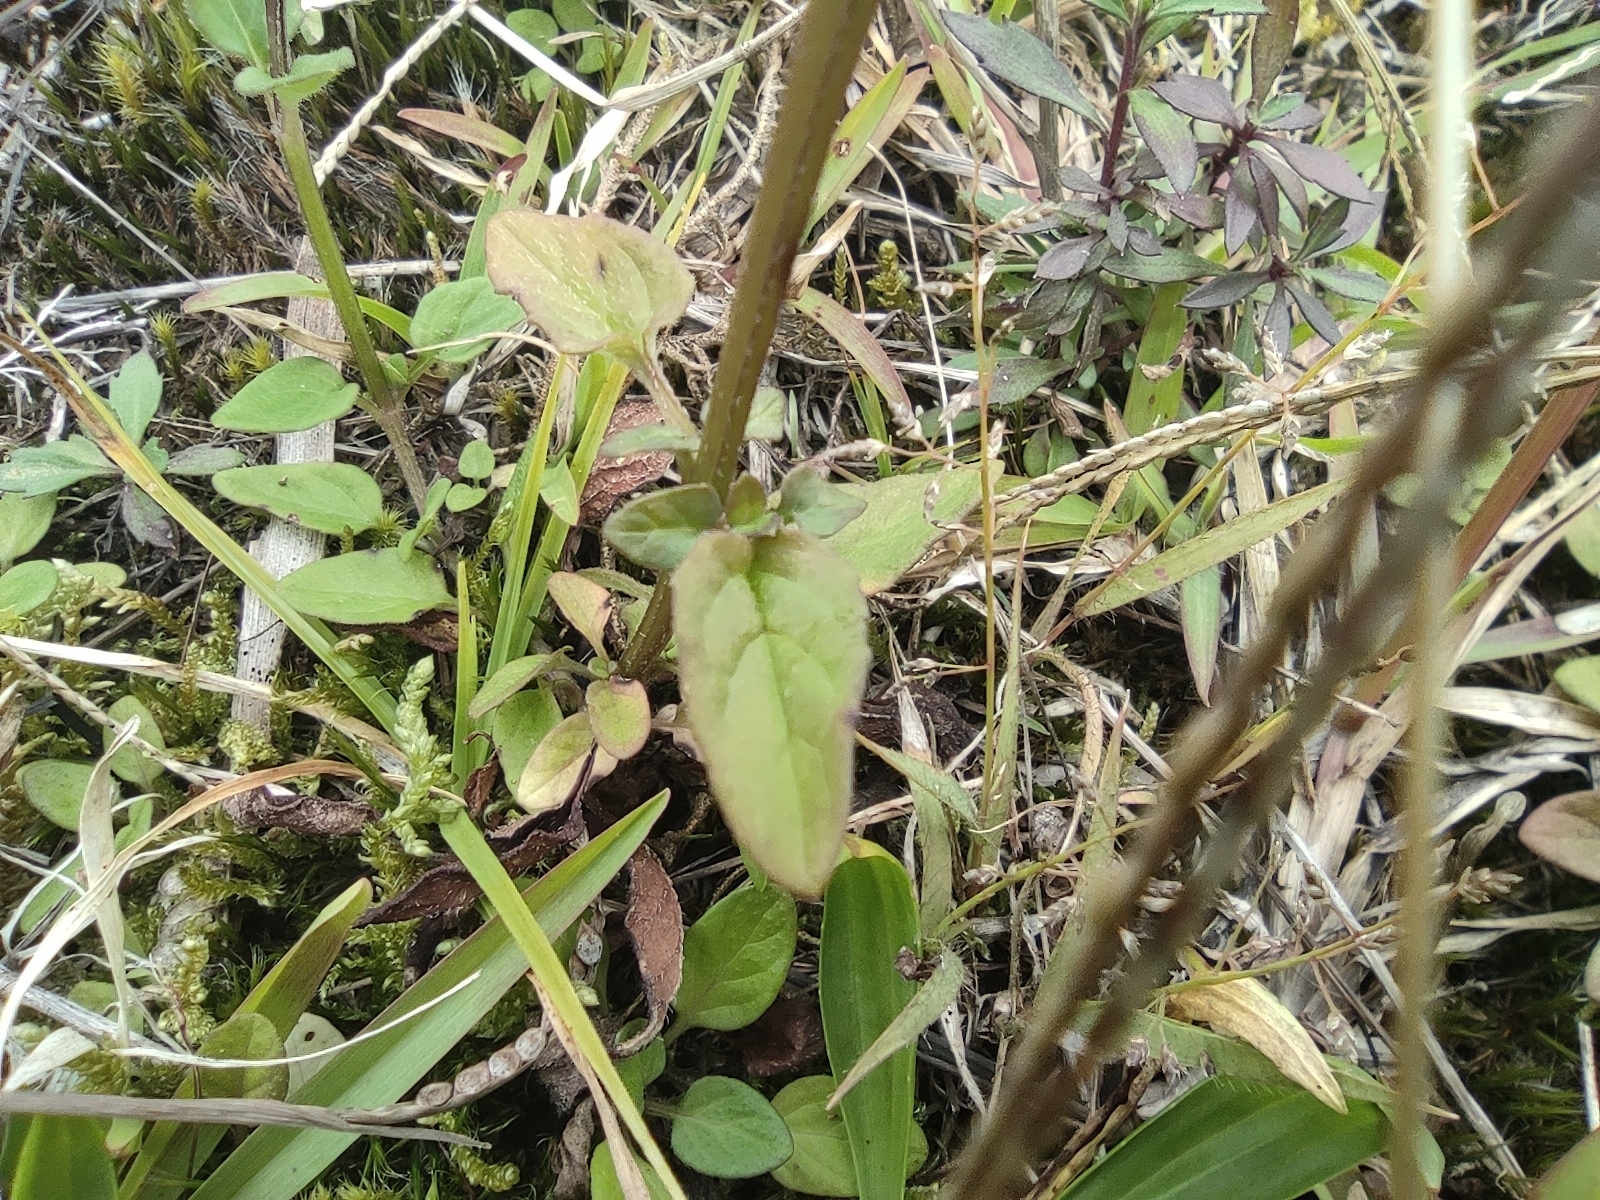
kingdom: Plantae
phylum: Tracheophyta
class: Magnoliopsida
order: Lamiales
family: Lamiaceae
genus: Prunella
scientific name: Prunella vulgaris
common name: Heal-all
